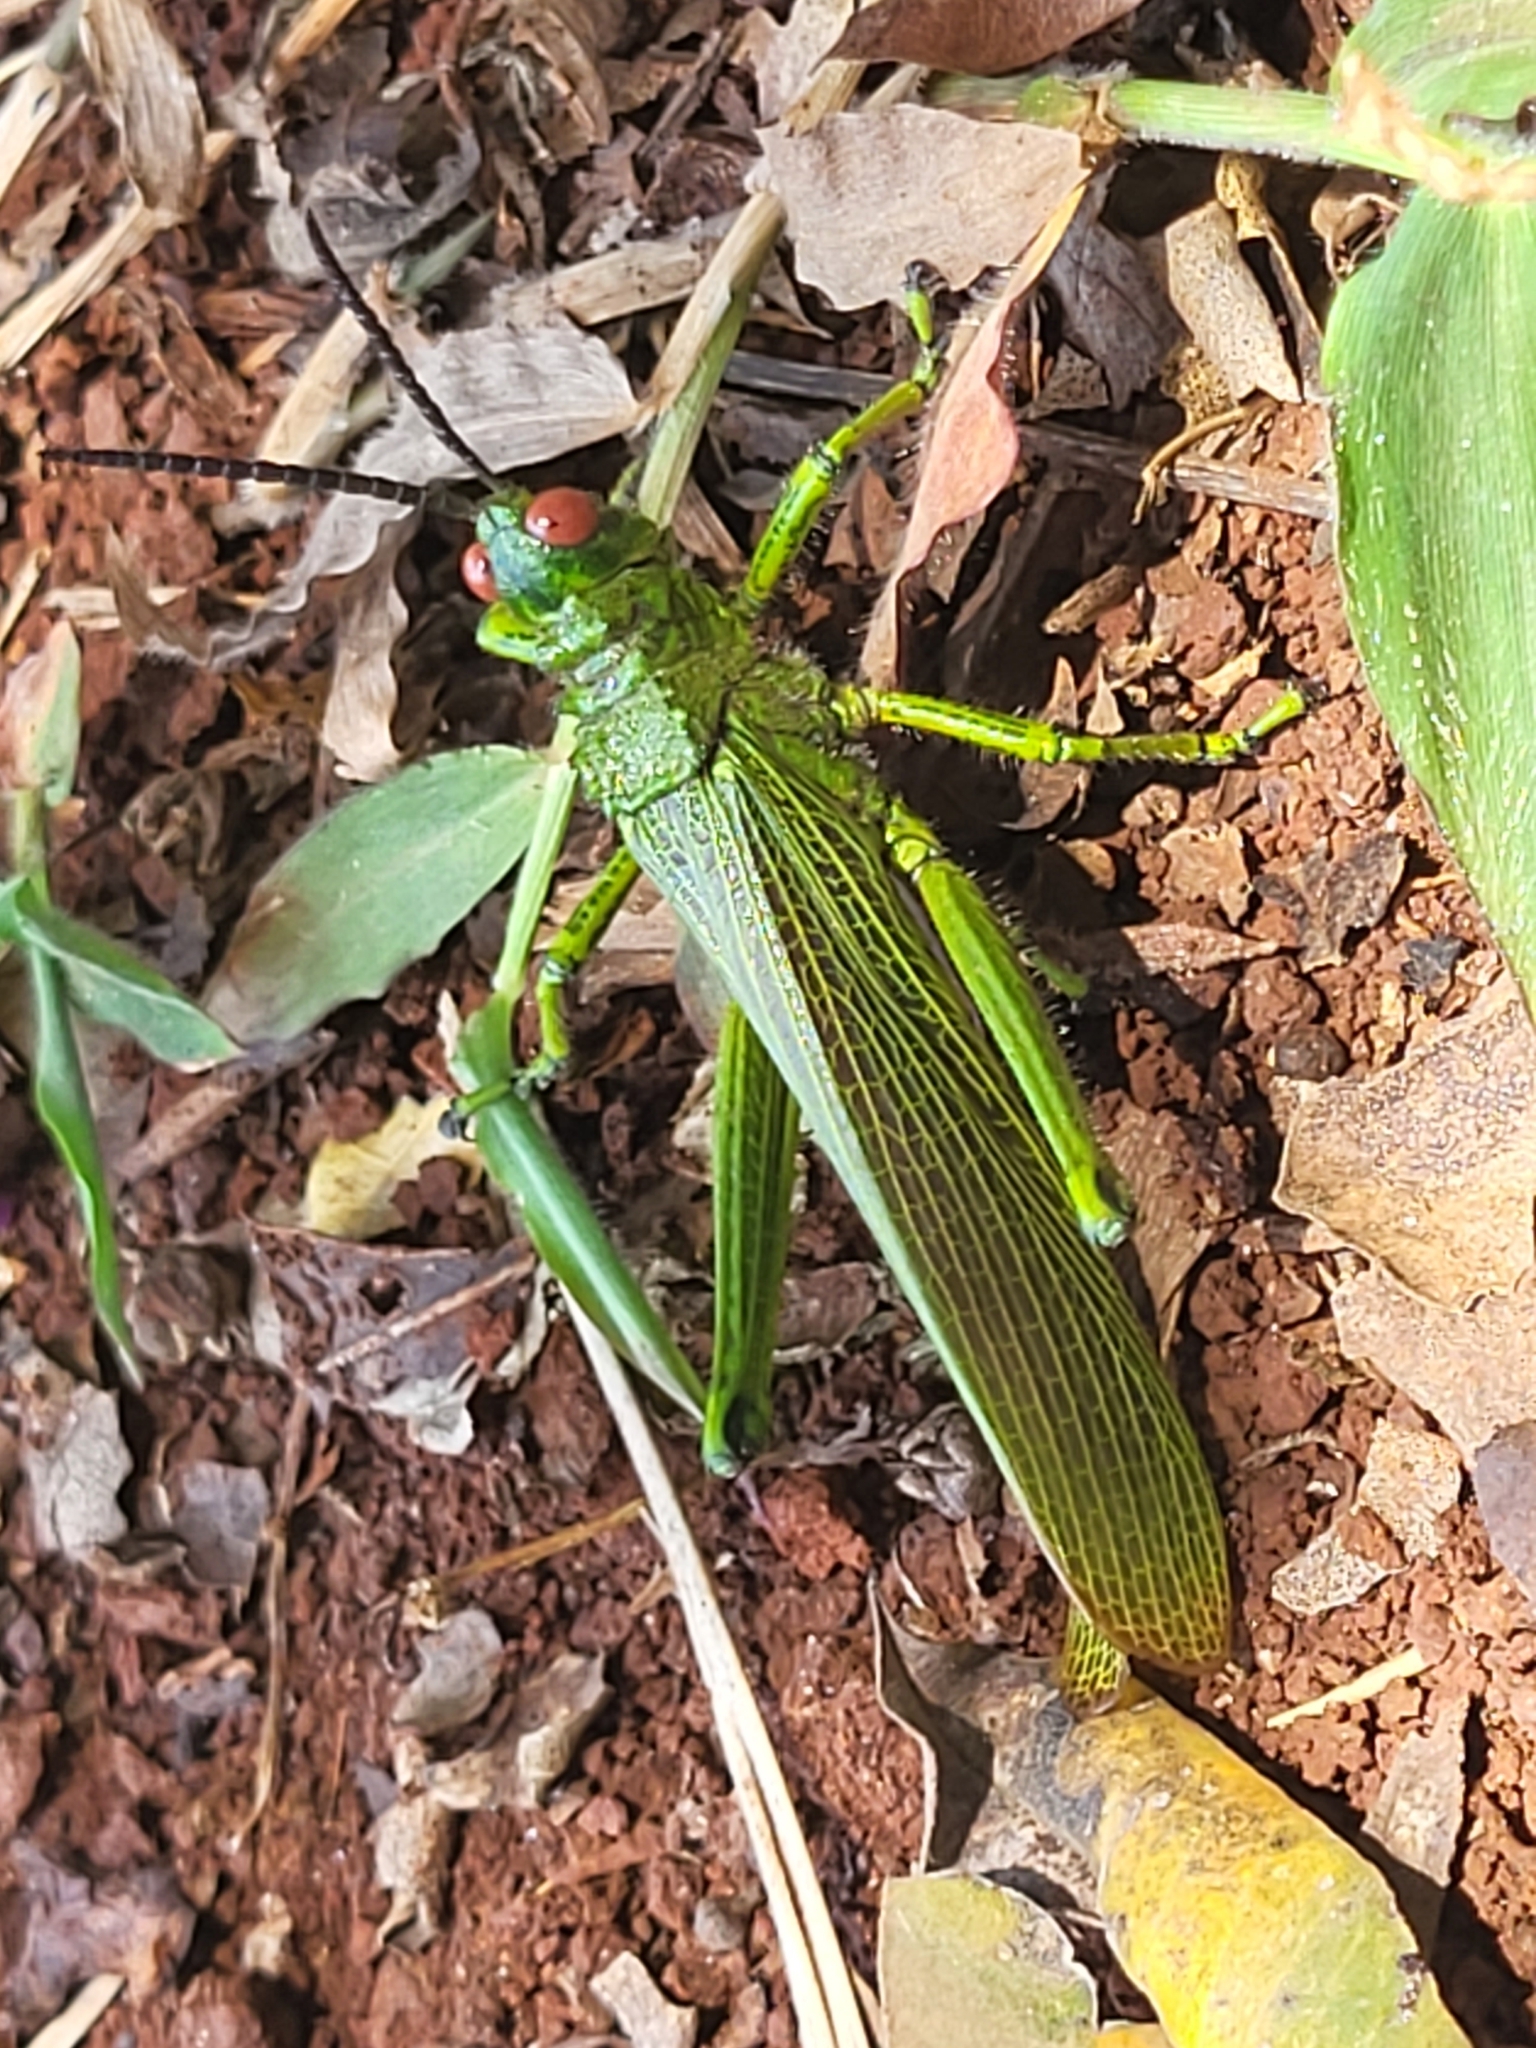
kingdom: Animalia
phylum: Arthropoda
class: Insecta
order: Orthoptera
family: Pyrgomorphidae
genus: Phyteumas
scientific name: Phyteumas purpurascens
